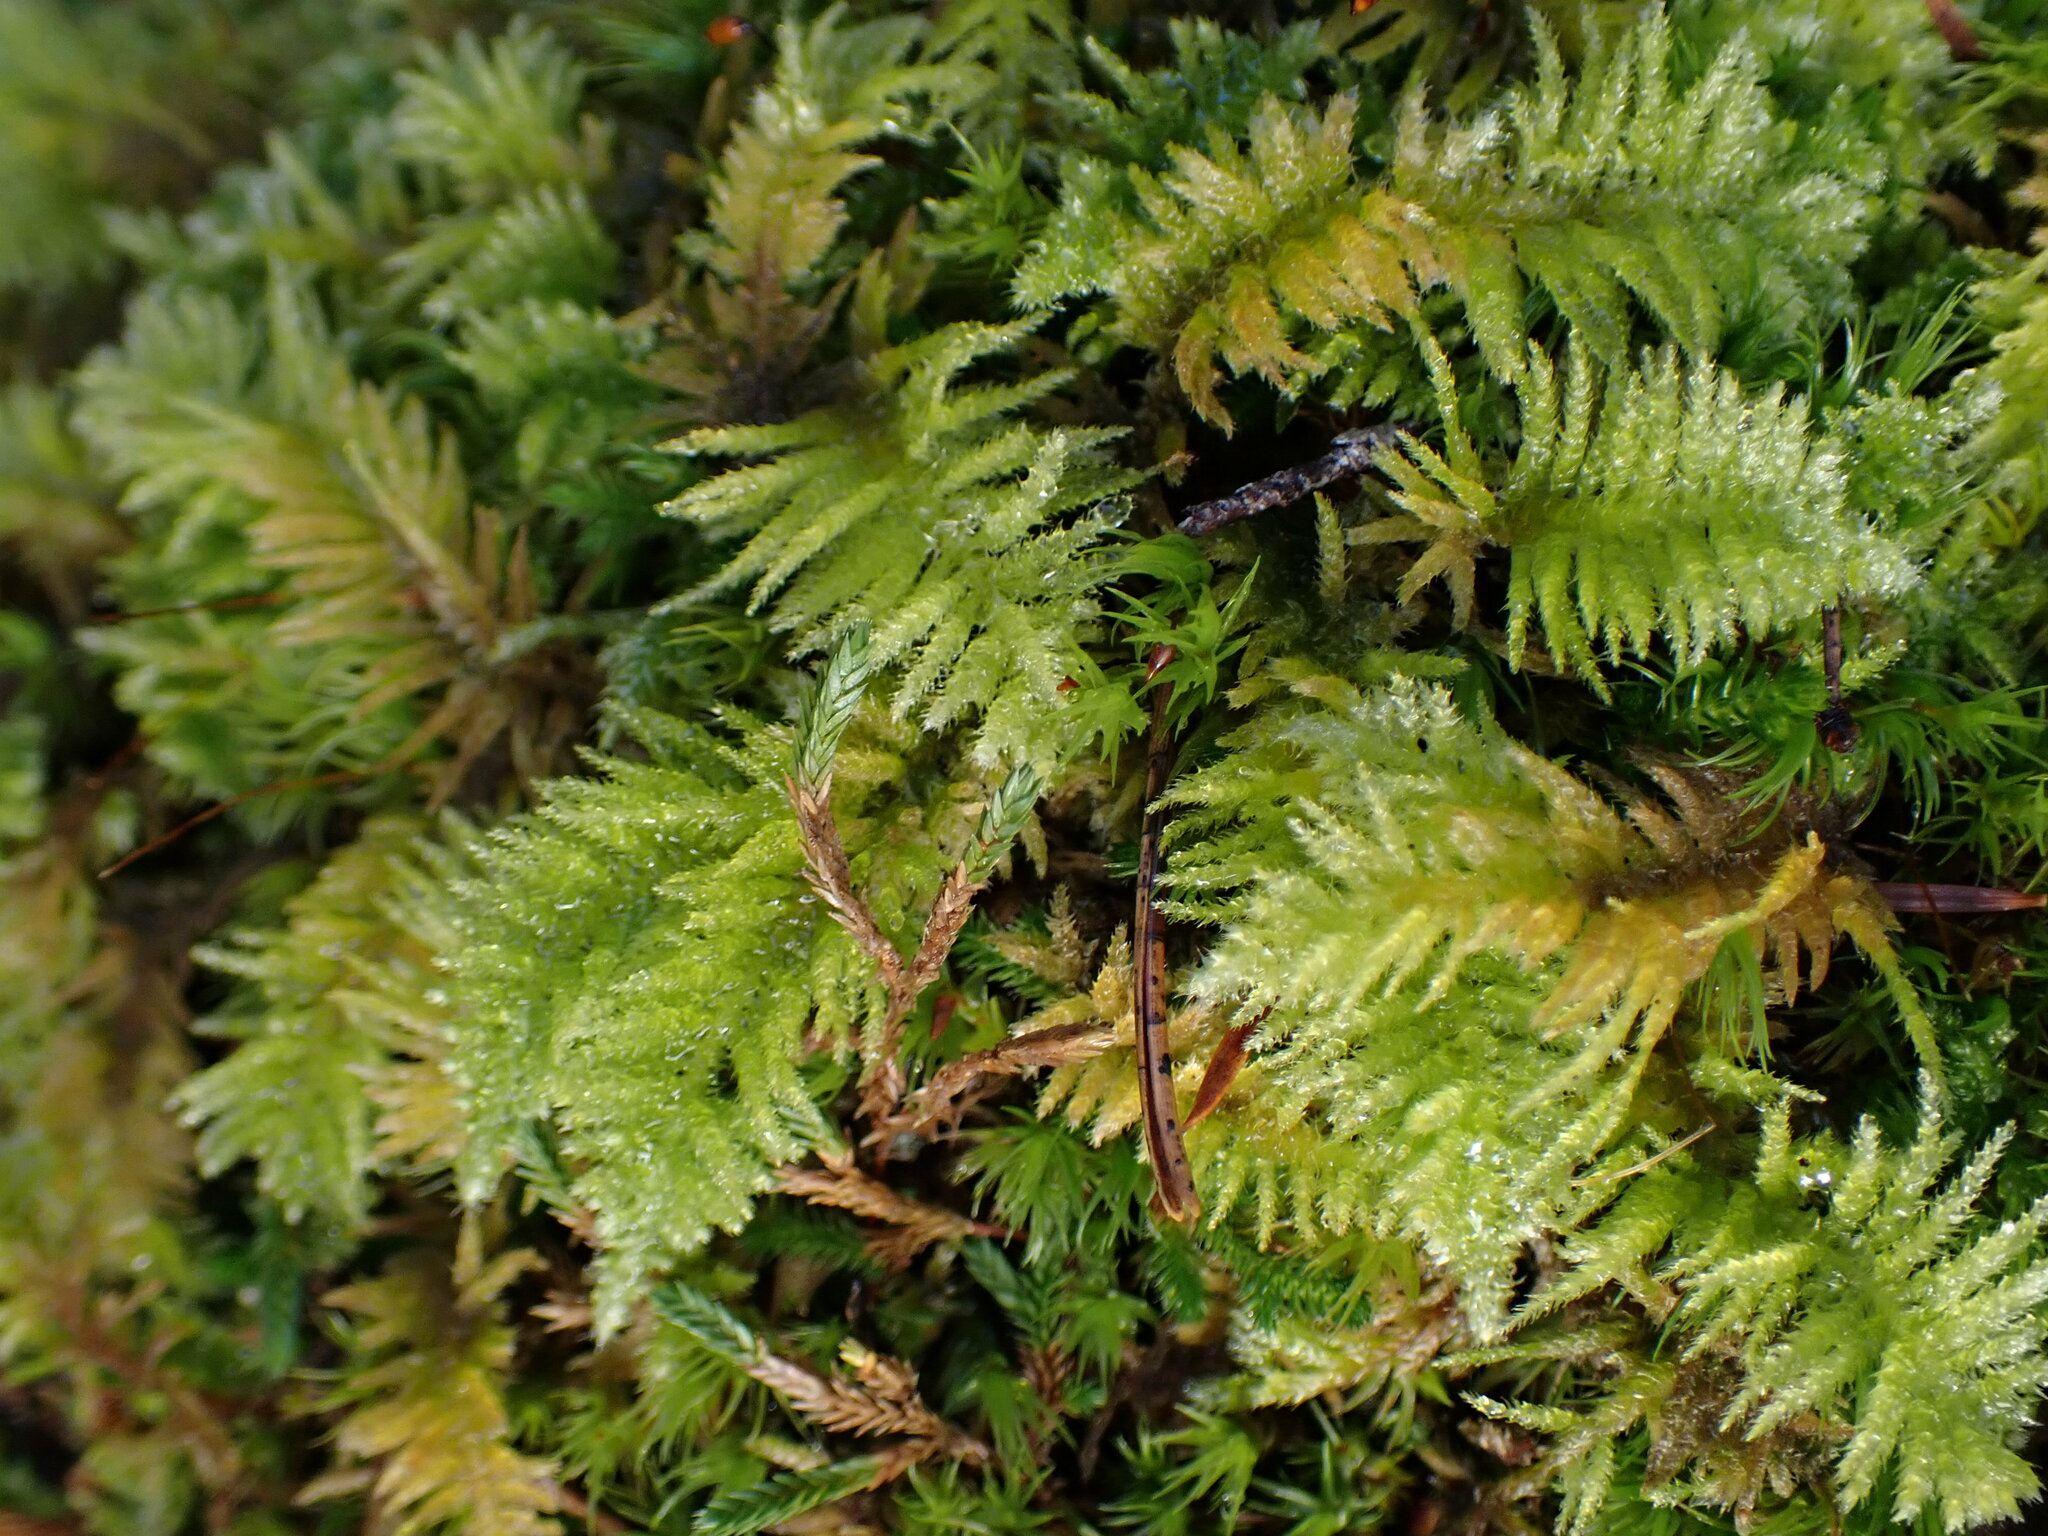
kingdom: Plantae
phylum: Bryophyta
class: Bryopsida
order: Hypnales
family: Brachytheciaceae
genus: Kindbergia
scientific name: Kindbergia oregana
